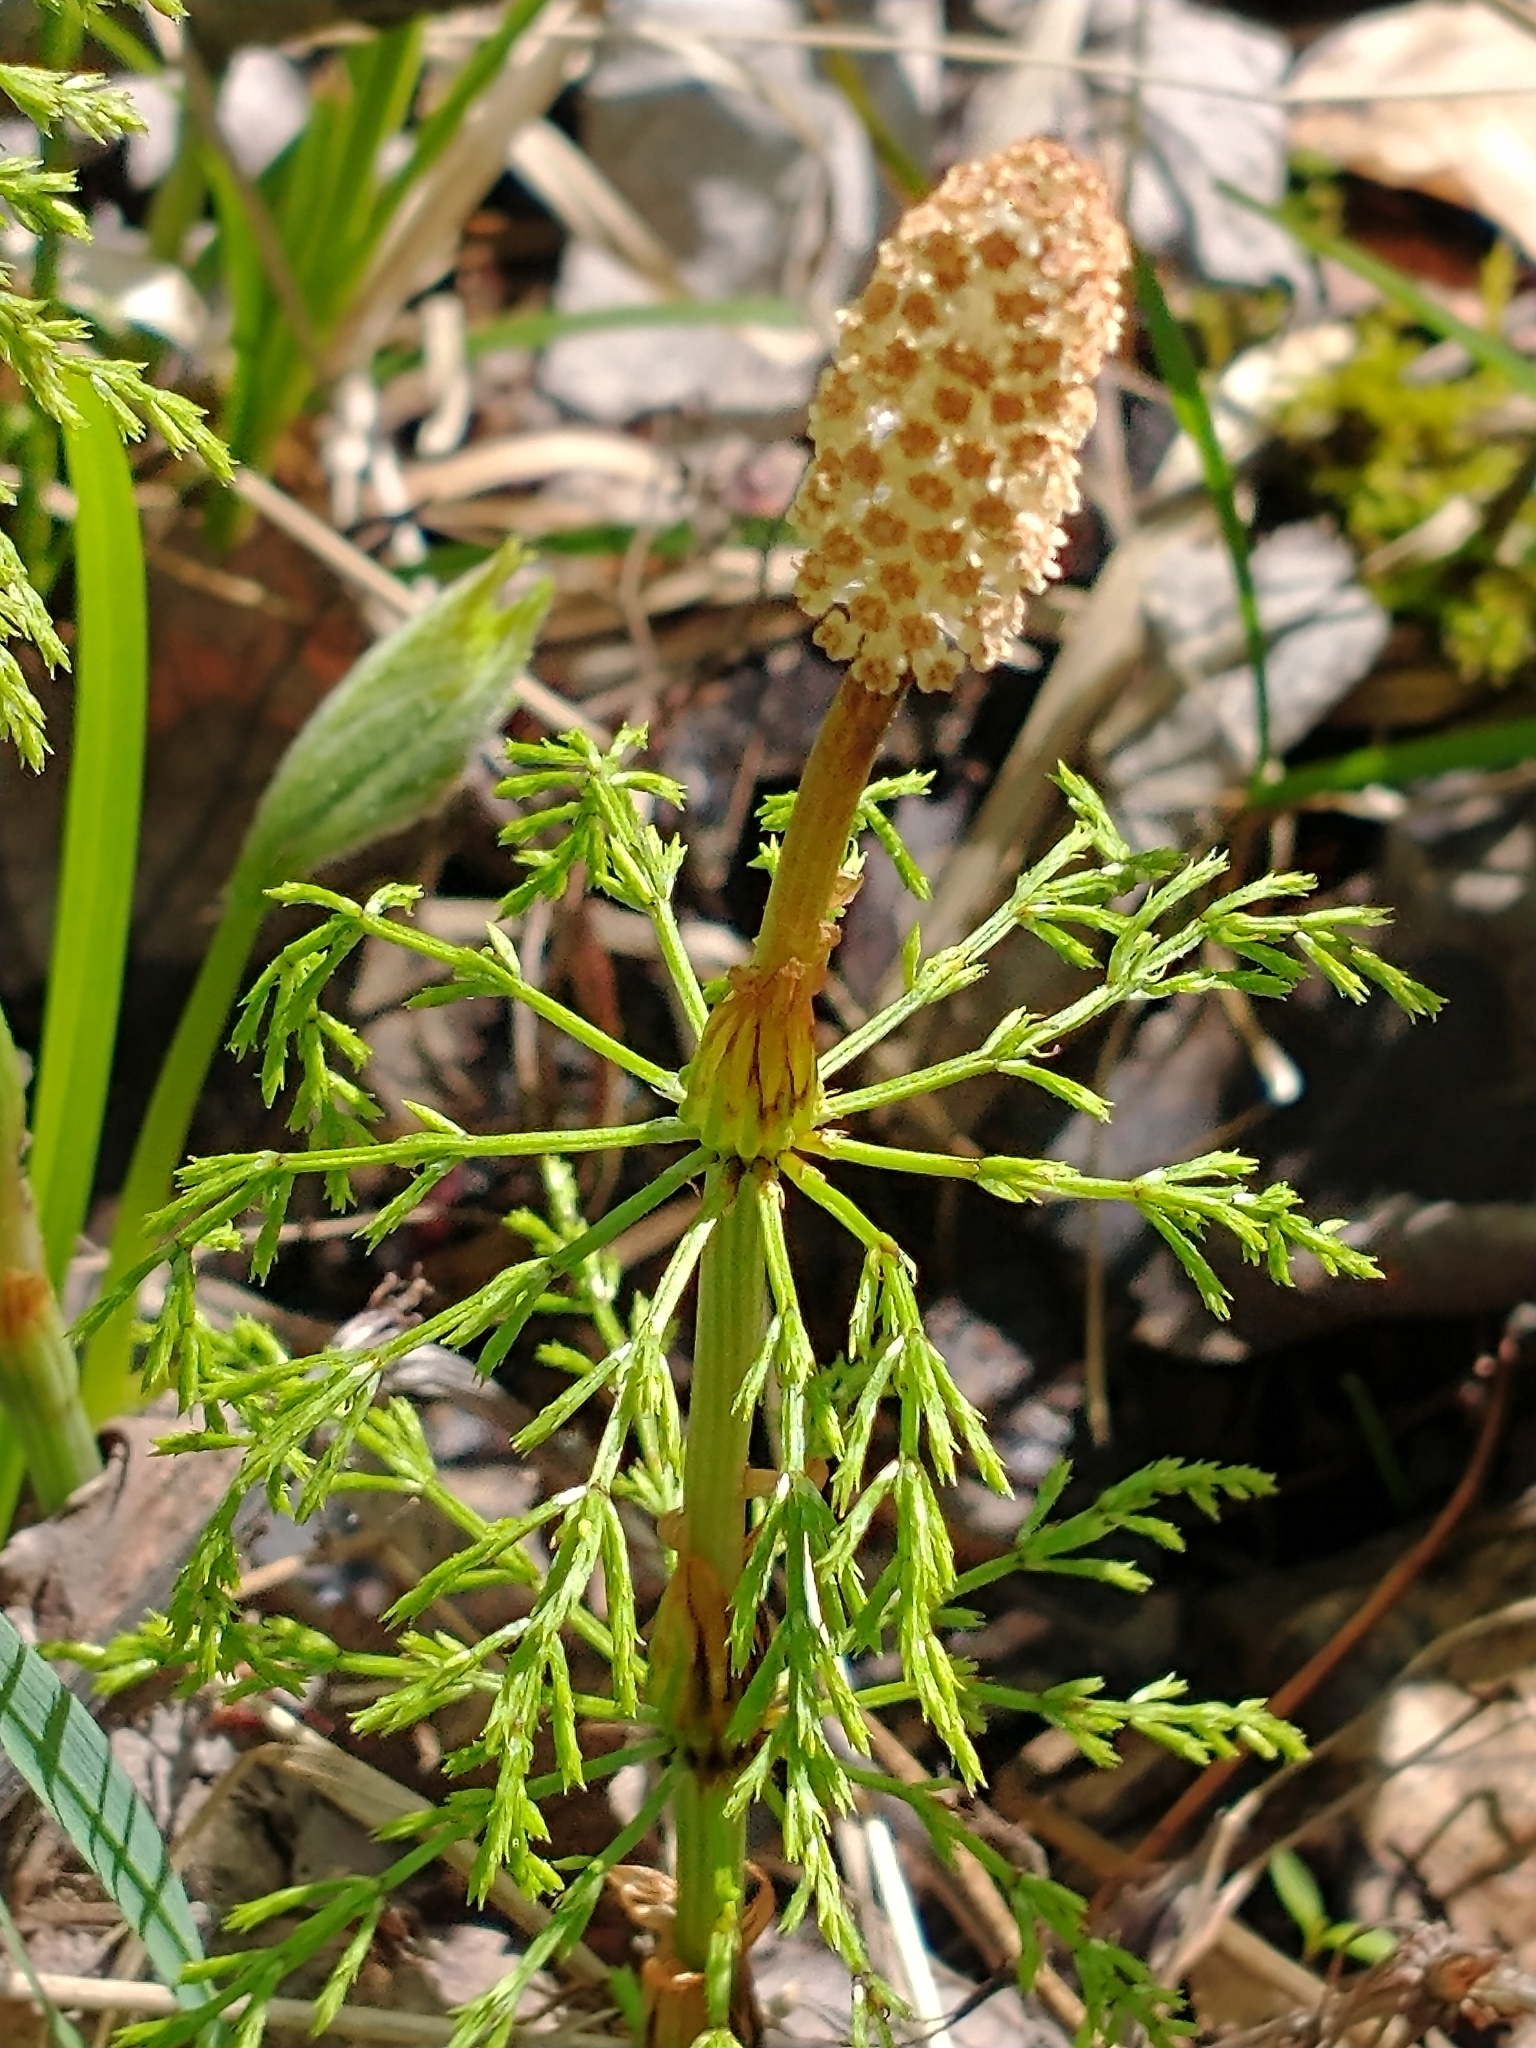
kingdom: Plantae
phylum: Tracheophyta
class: Polypodiopsida
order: Equisetales
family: Equisetaceae
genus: Equisetum
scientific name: Equisetum sylvaticum
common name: Wood horsetail
